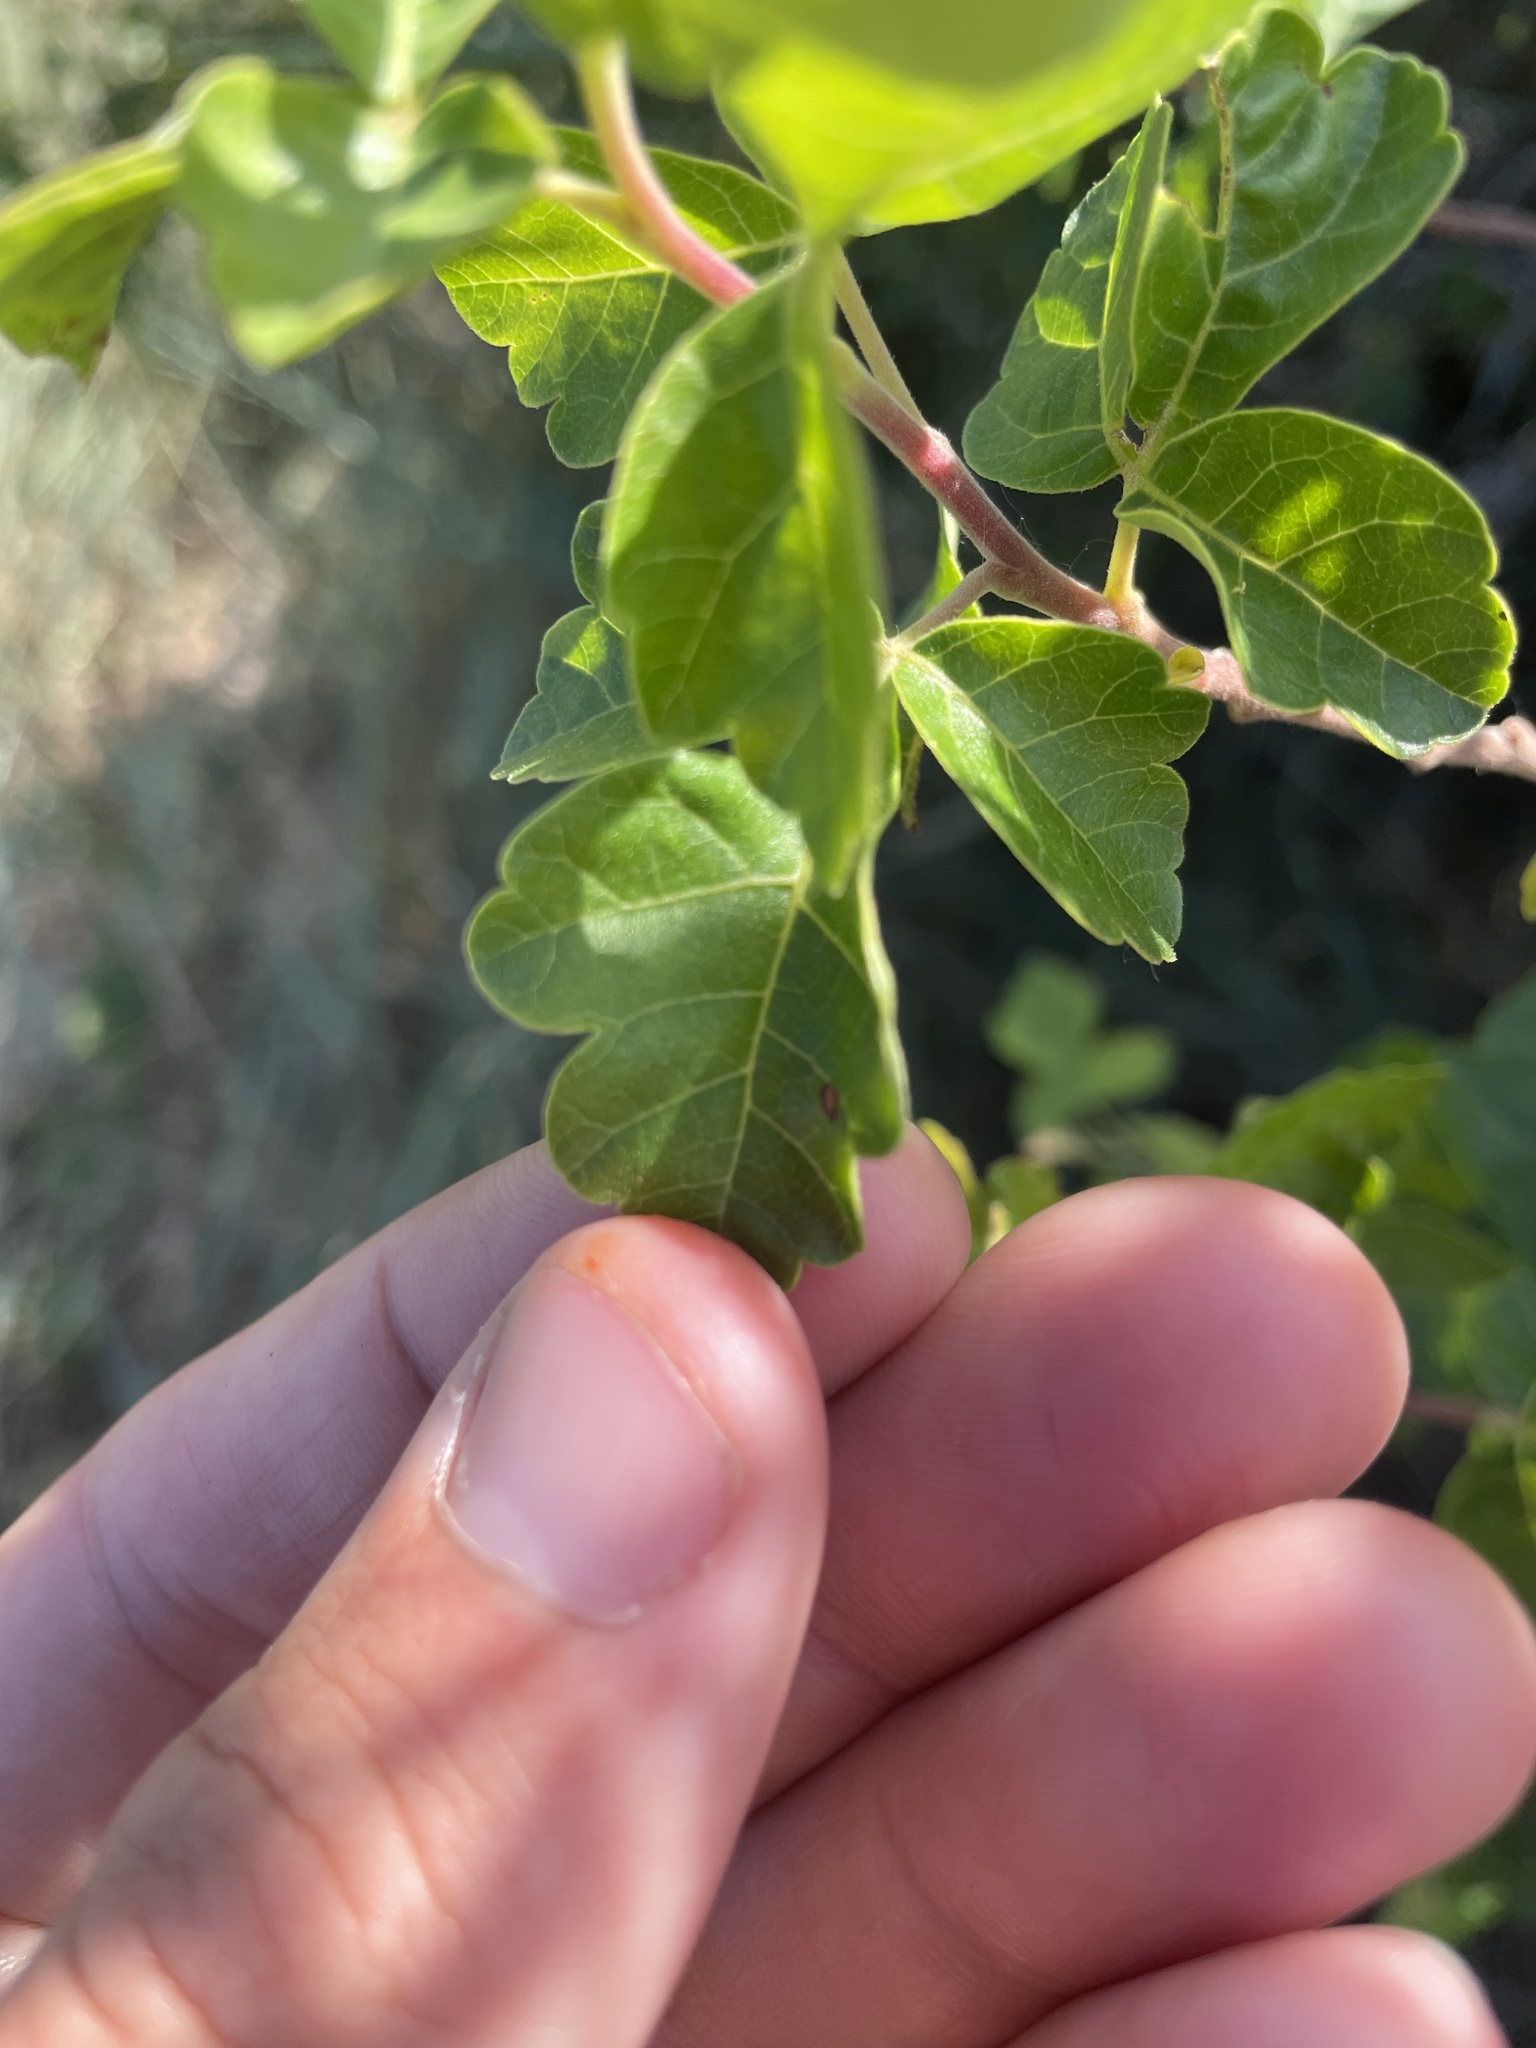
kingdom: Plantae
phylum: Tracheophyta
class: Magnoliopsida
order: Sapindales
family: Anacardiaceae
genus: Rhus
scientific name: Rhus trilobata
